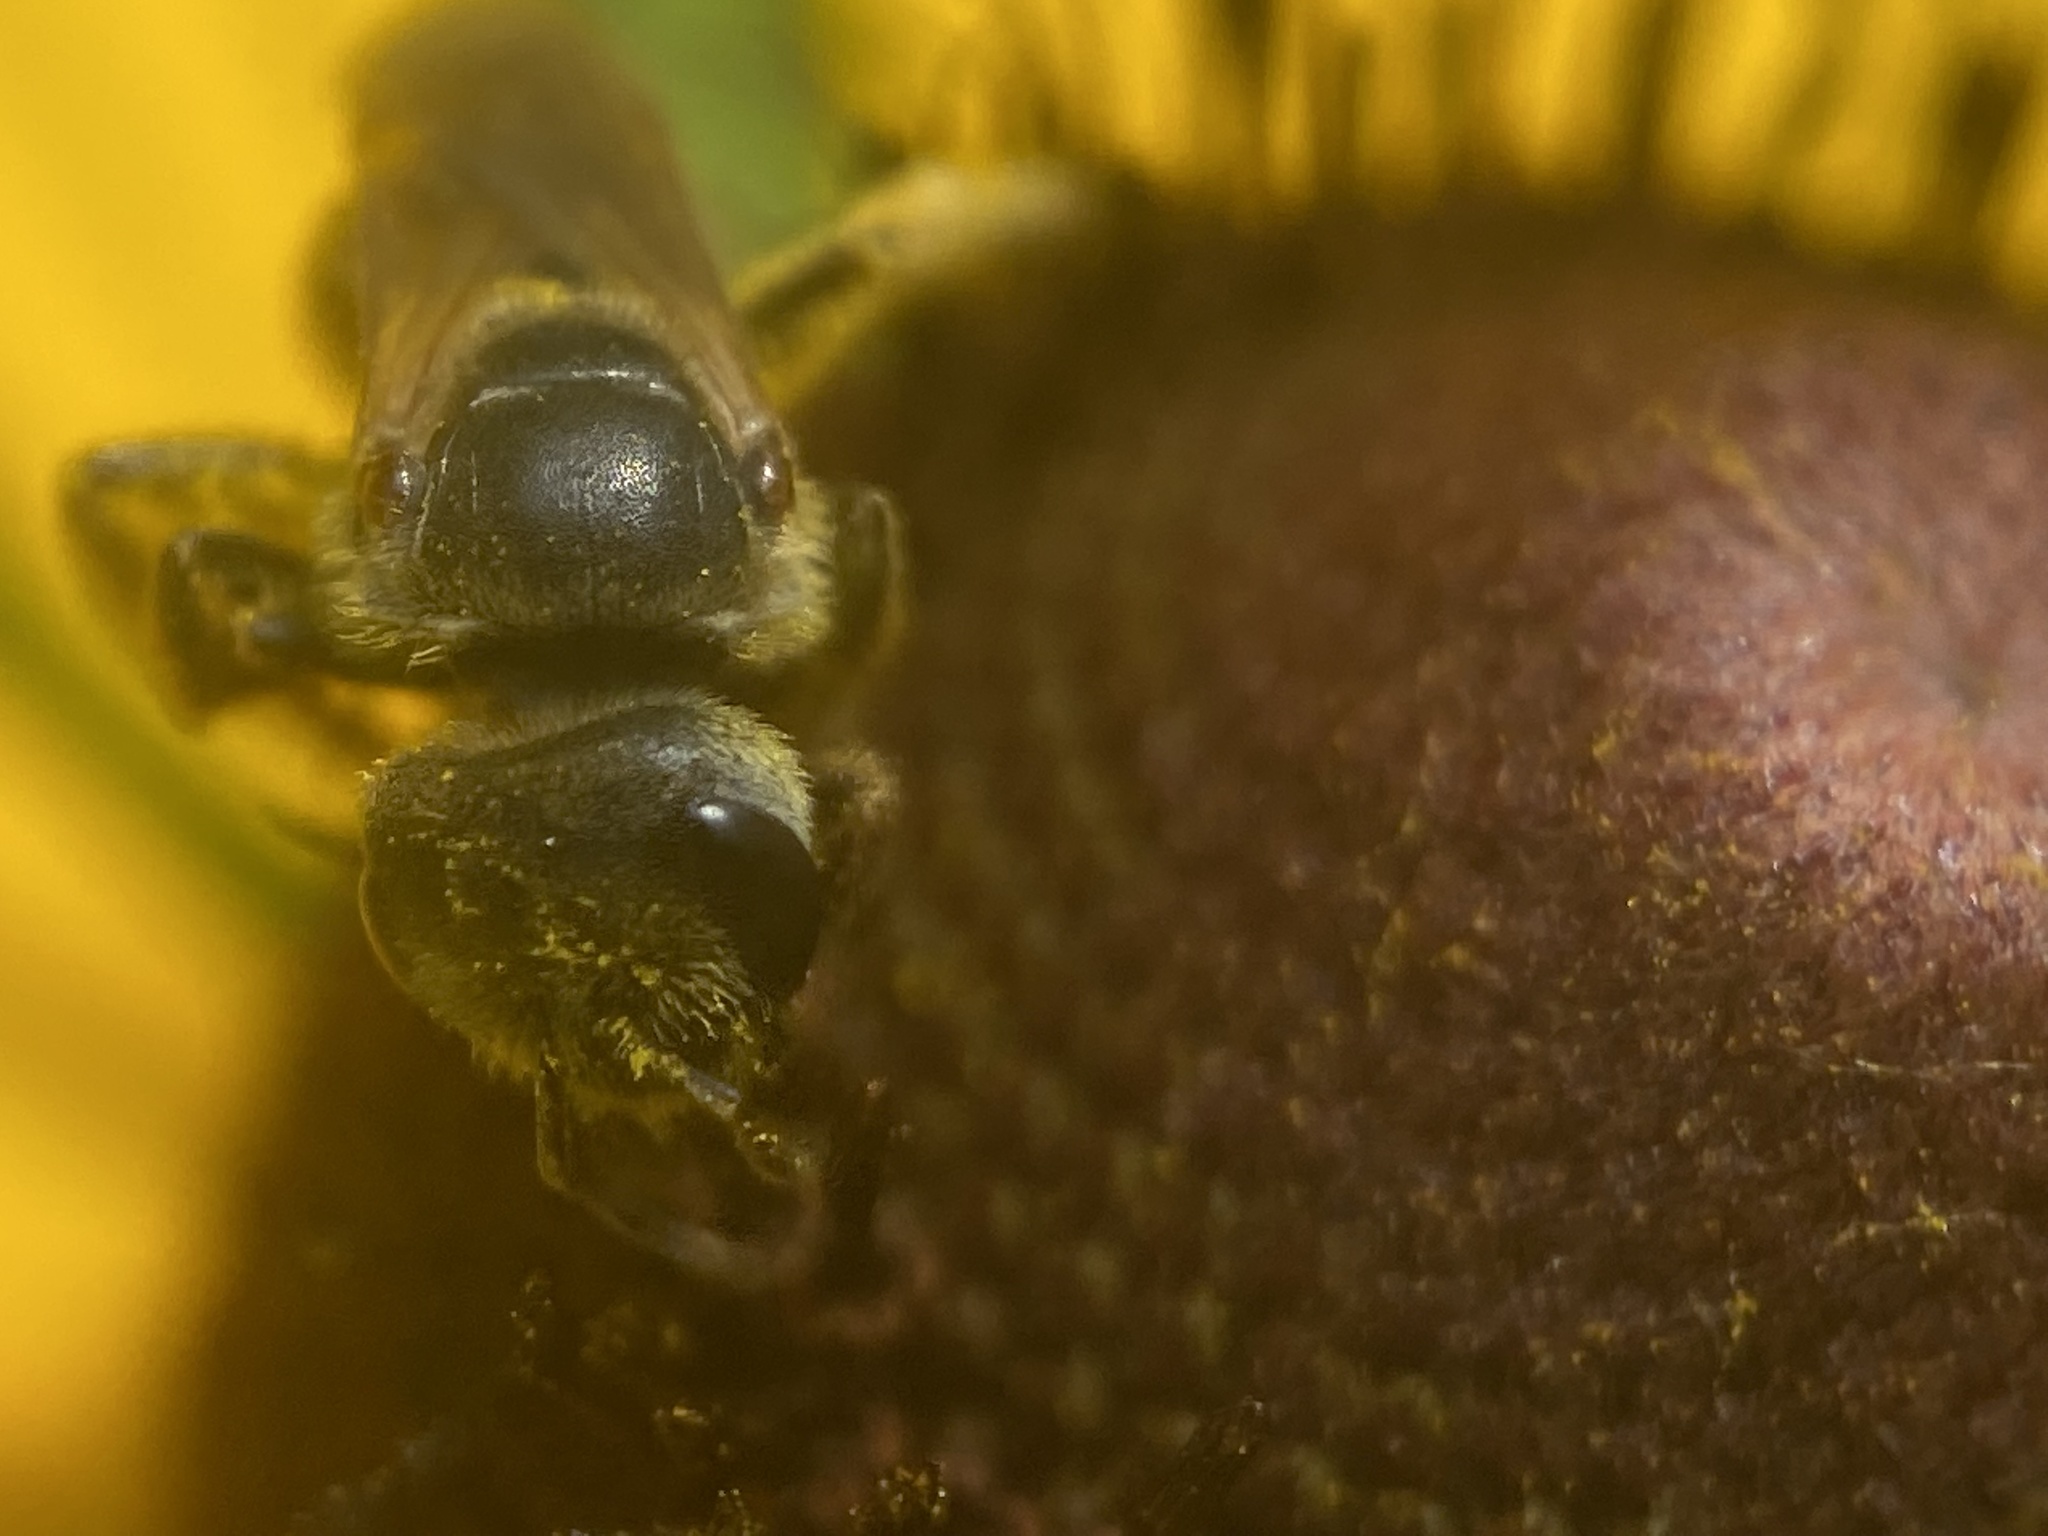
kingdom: Animalia
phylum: Arthropoda
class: Insecta
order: Hymenoptera
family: Halictidae
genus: Halictus
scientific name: Halictus ligatus
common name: Ligated furrow bee
